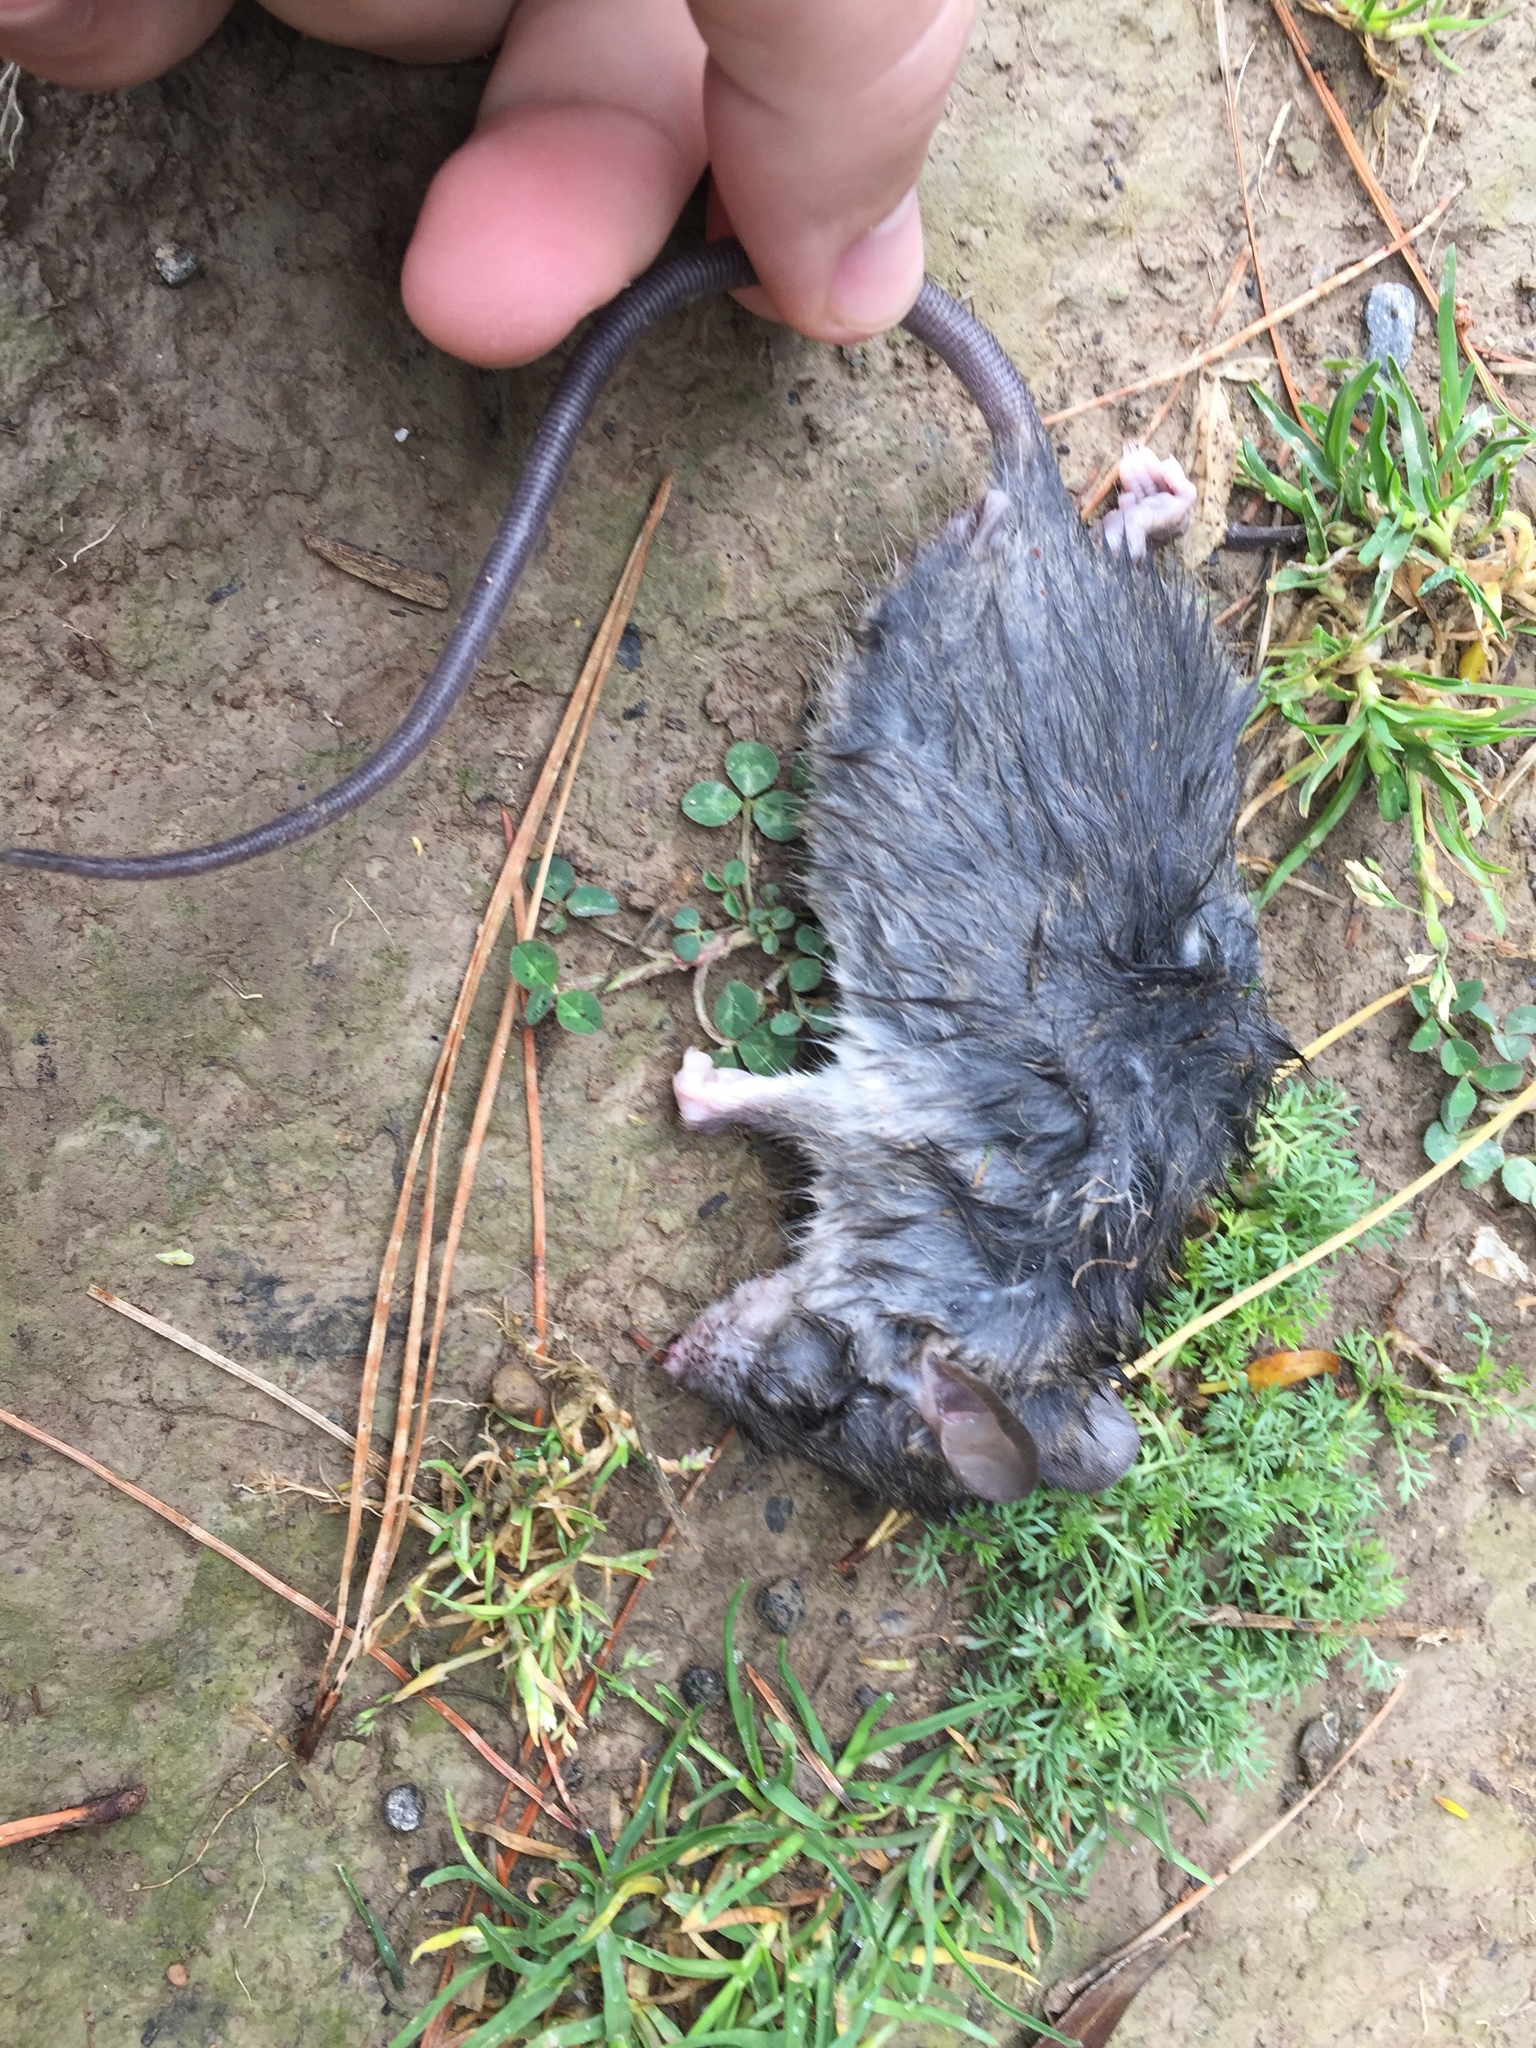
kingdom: Animalia
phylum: Chordata
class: Mammalia
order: Rodentia
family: Muridae
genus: Rattus
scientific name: Rattus rattus
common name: Black rat
